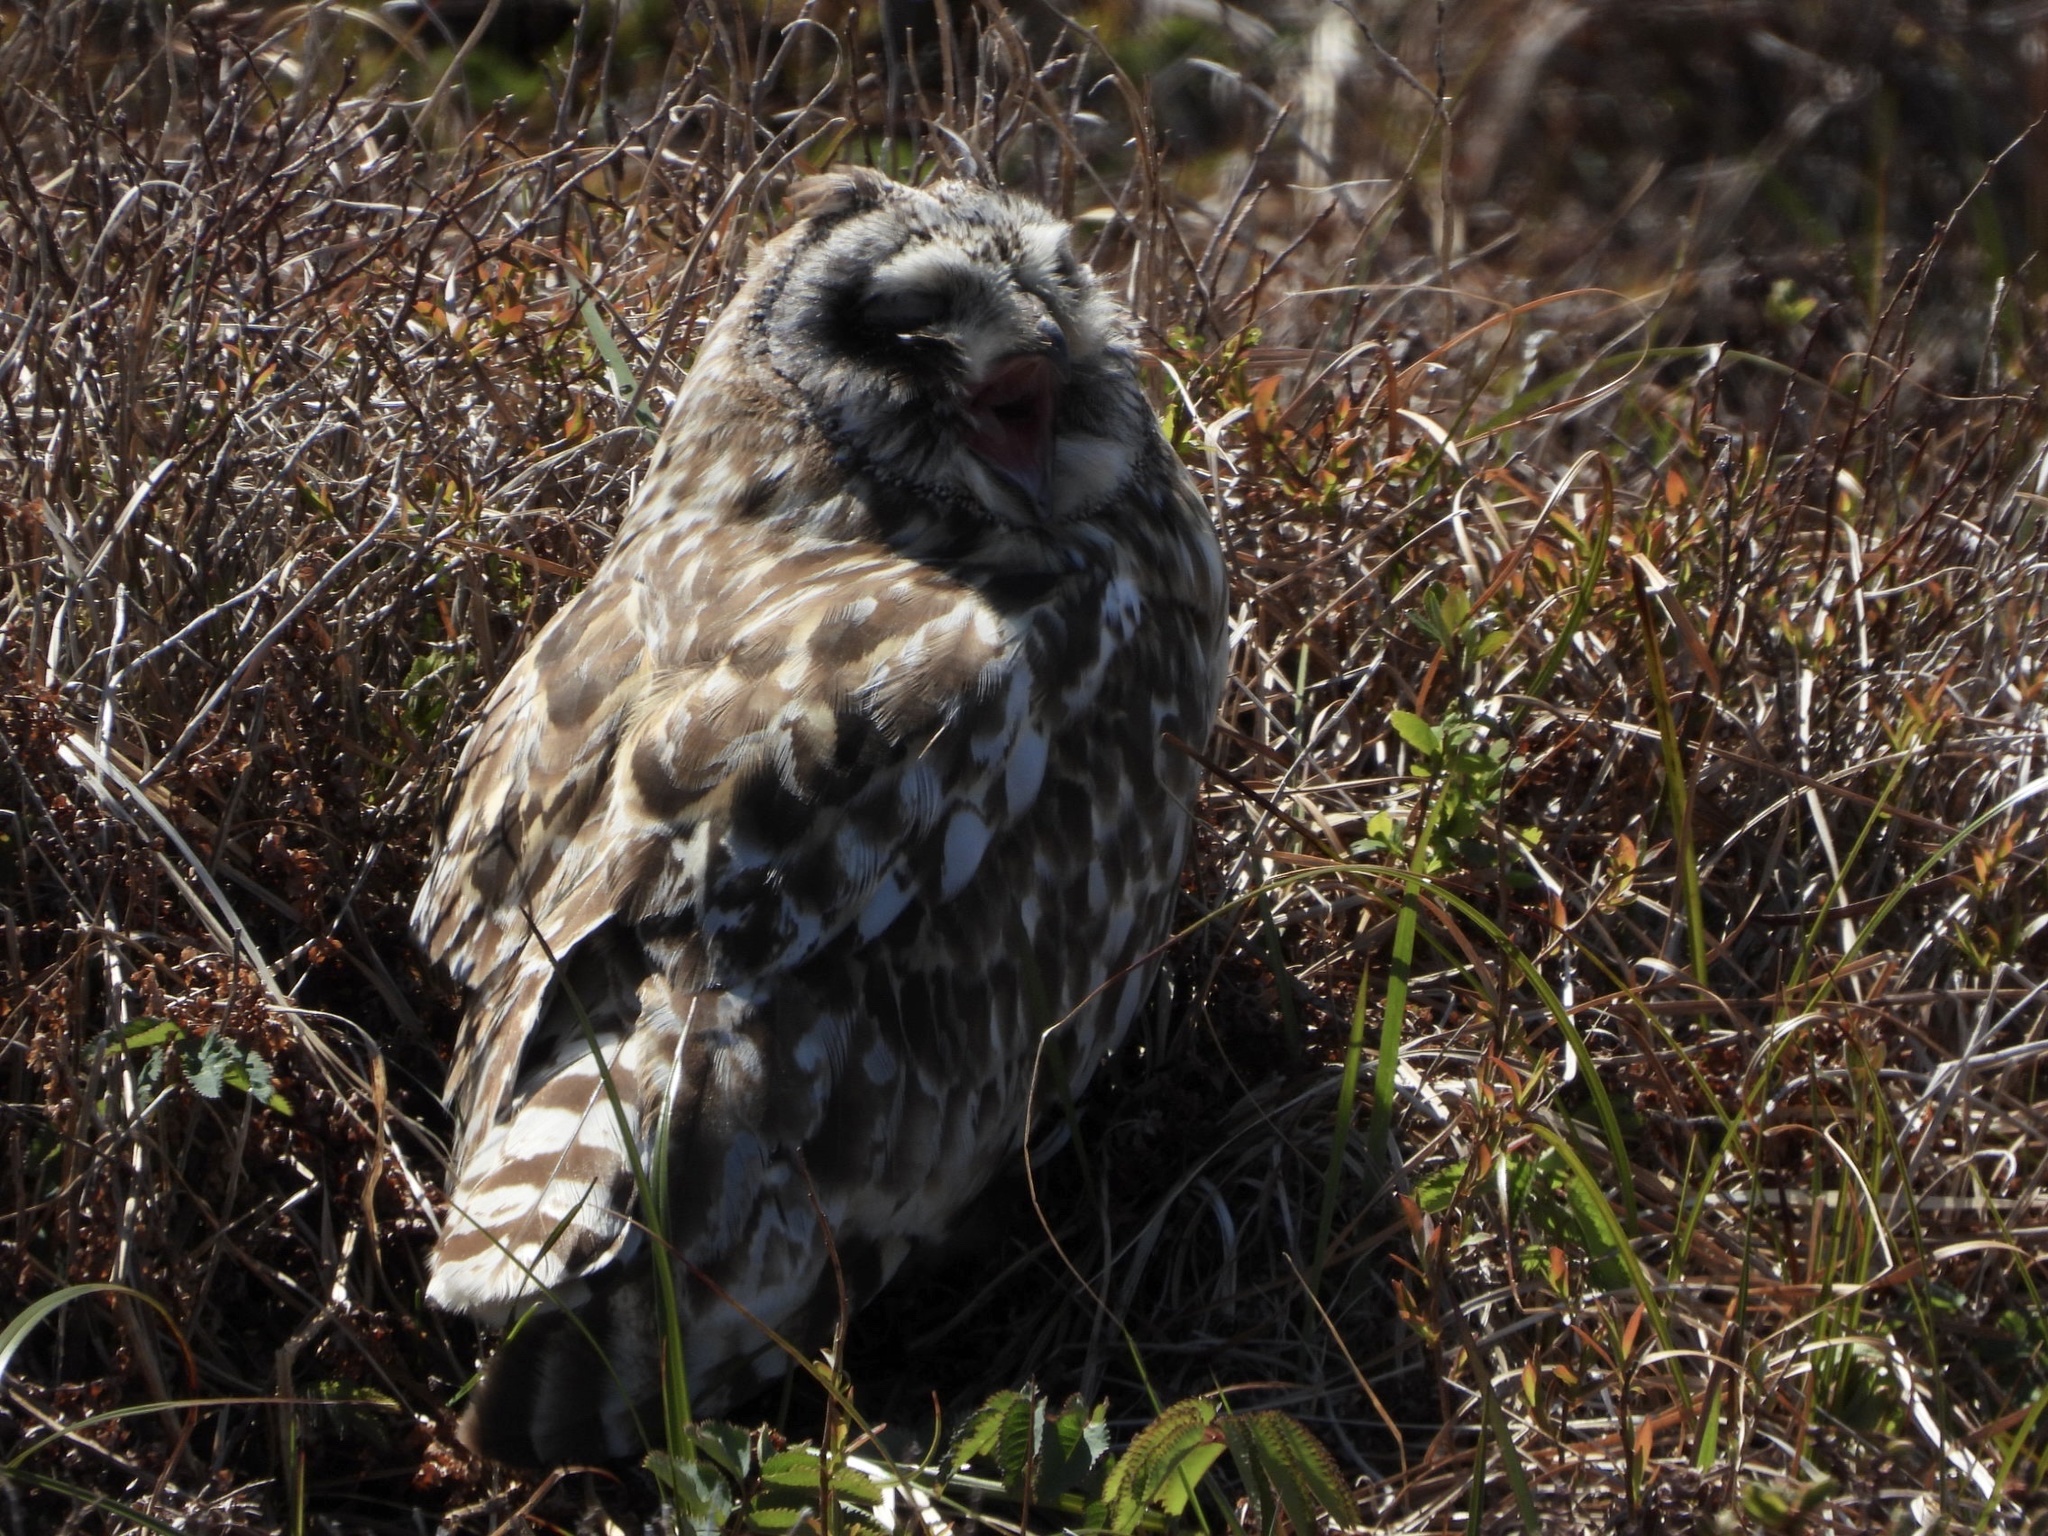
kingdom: Animalia
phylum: Chordata
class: Aves
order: Strigiformes
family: Strigidae
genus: Asio
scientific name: Asio flammeus
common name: Short-eared owl
